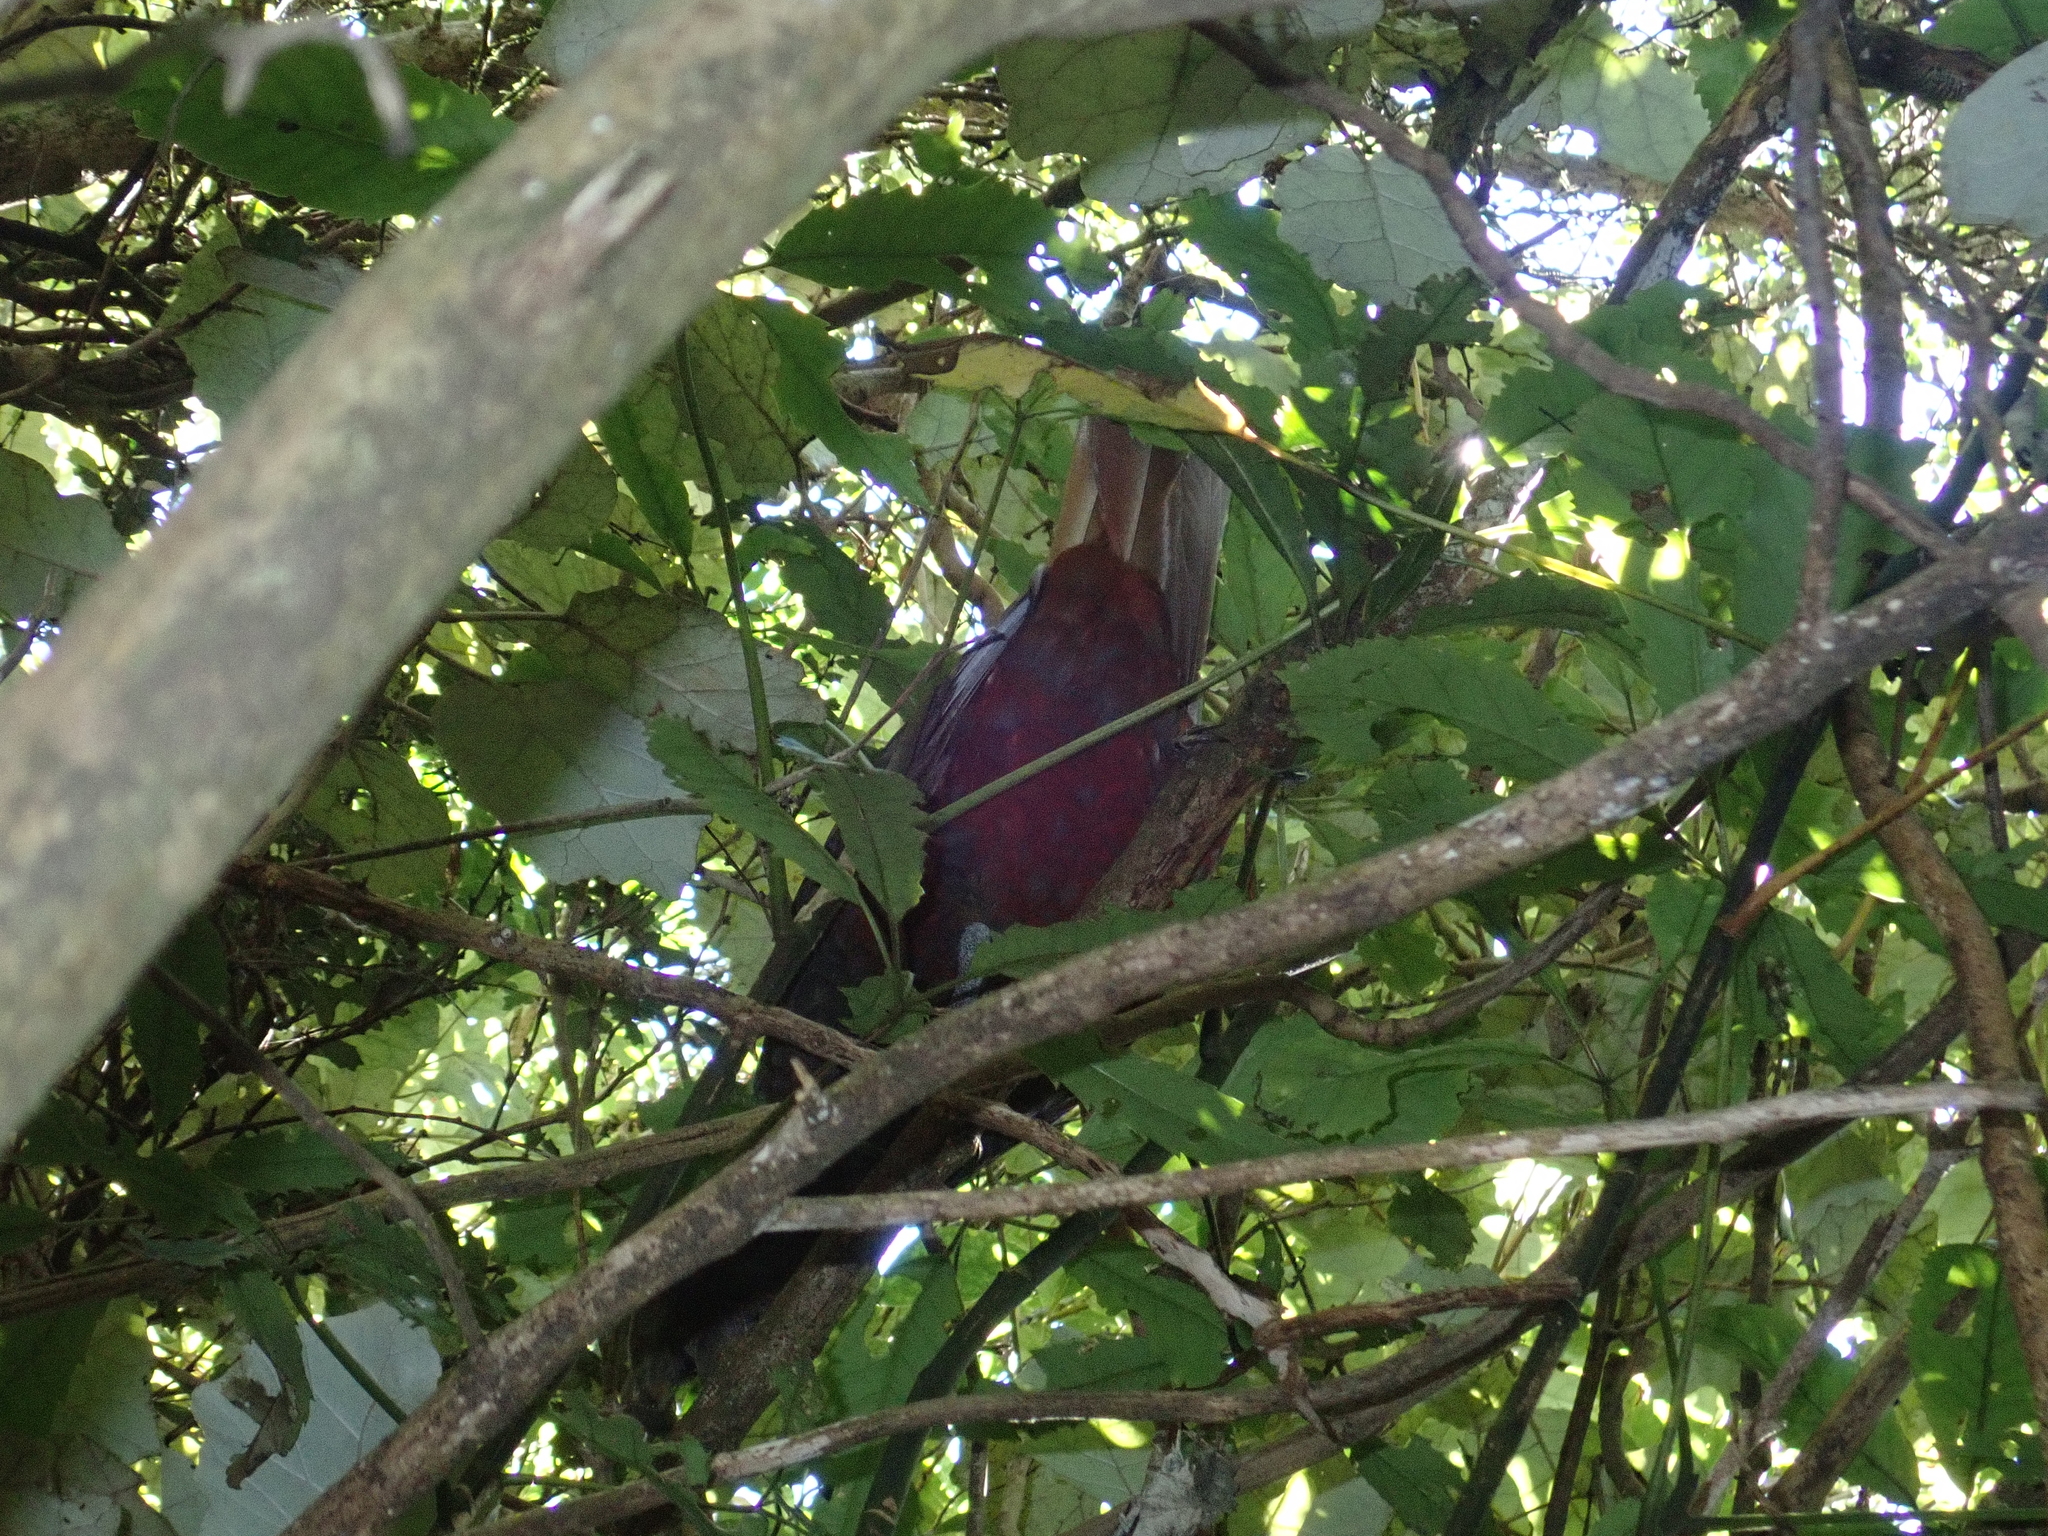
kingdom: Animalia
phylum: Chordata
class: Aves
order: Psittaciformes
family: Psittacidae
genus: Nestor
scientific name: Nestor meridionalis
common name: New zealand kaka
